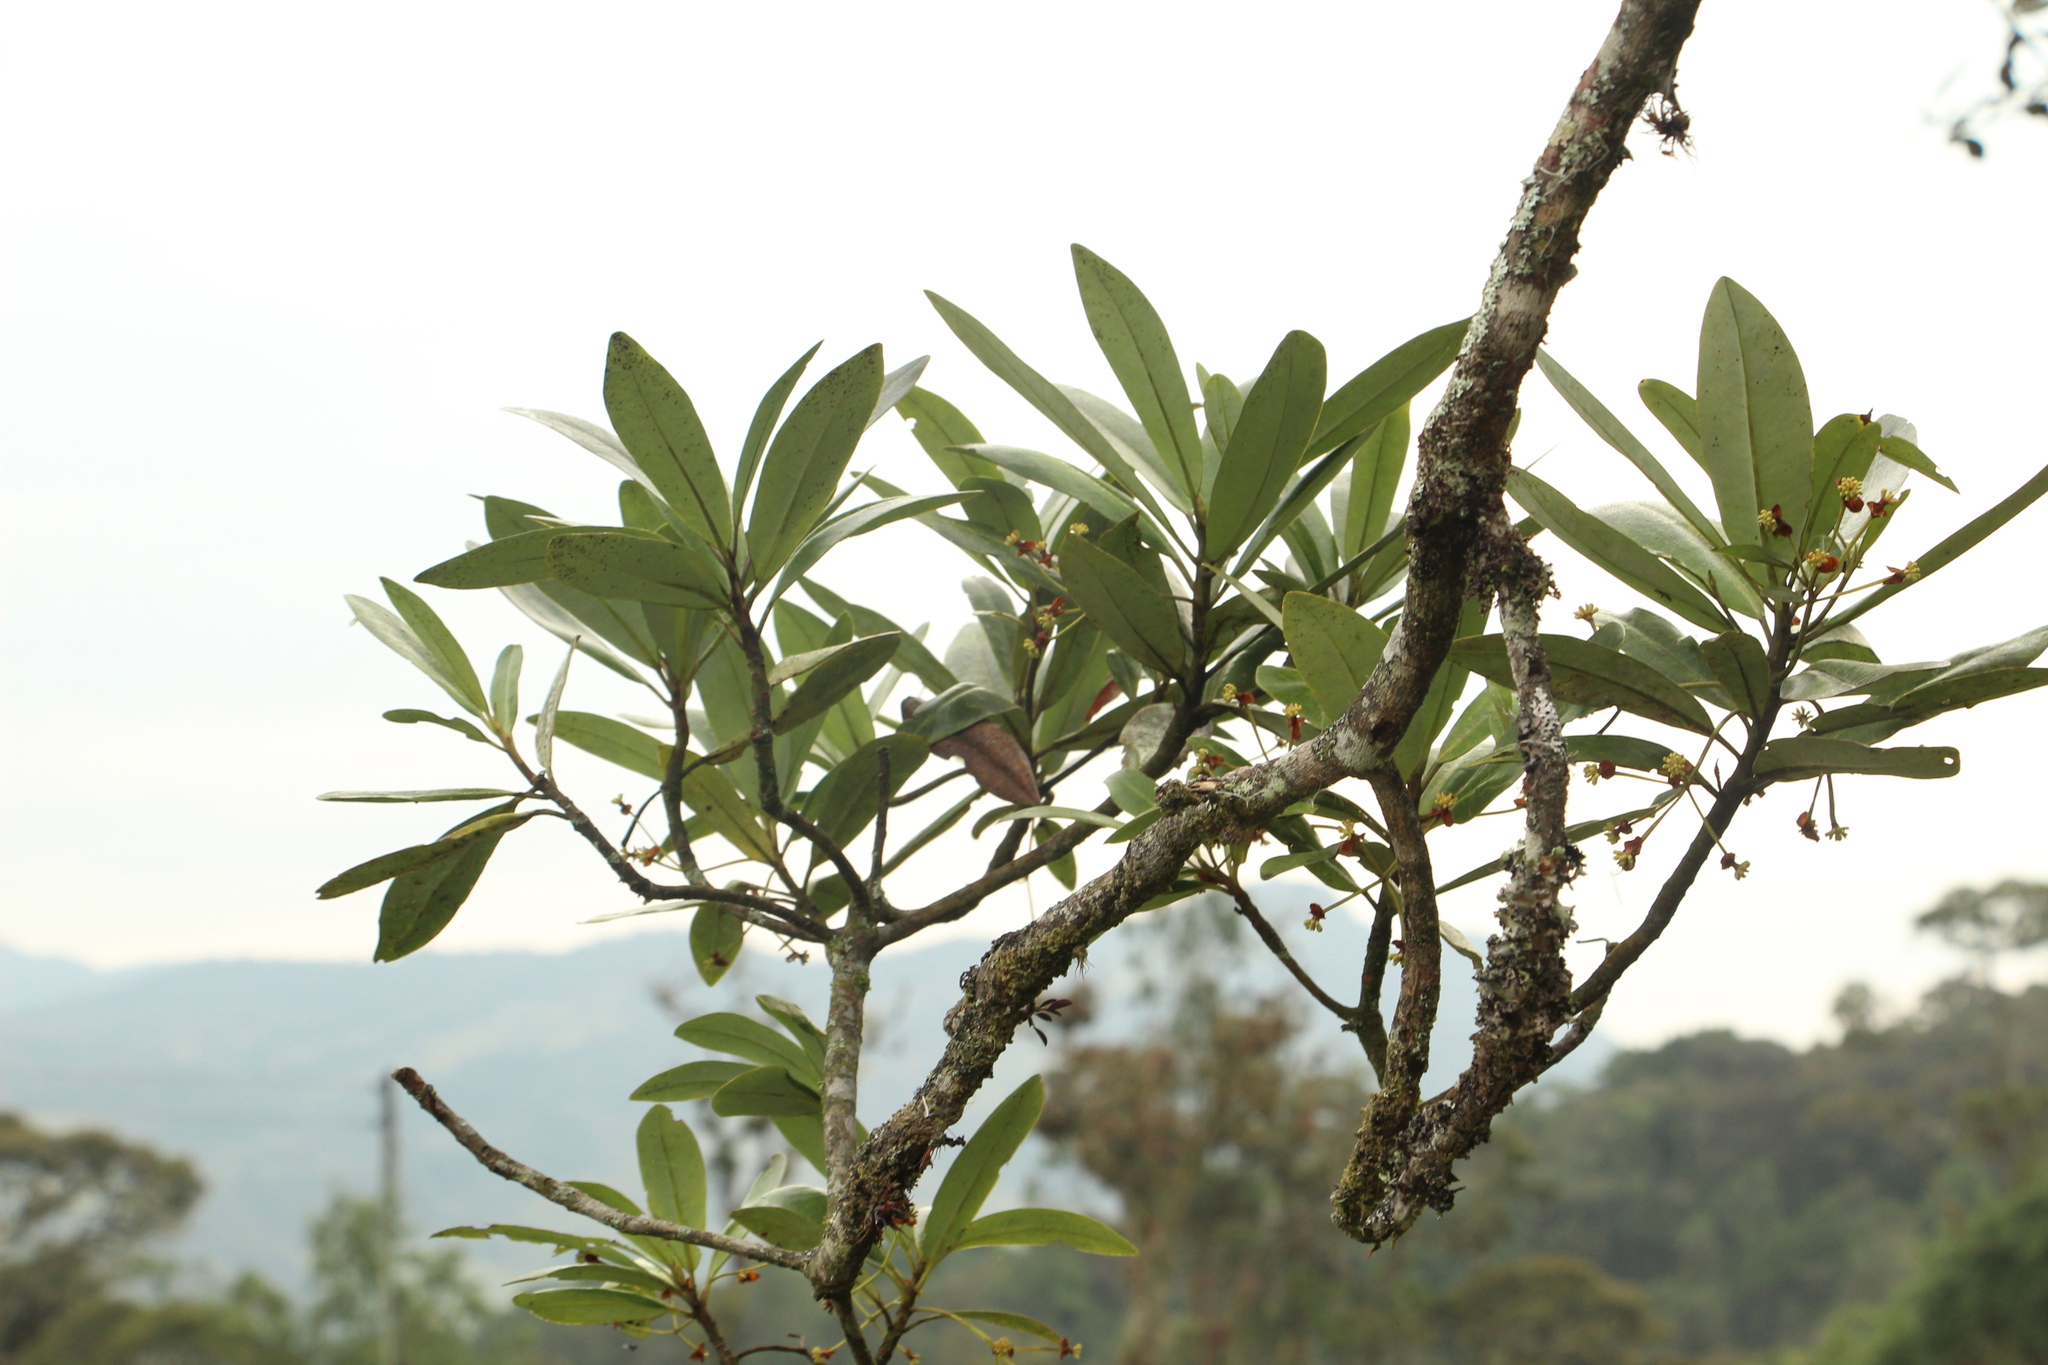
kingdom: Plantae
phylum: Tracheophyta
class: Magnoliopsida
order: Canellales
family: Winteraceae
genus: Drimys
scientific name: Drimys granadensis
